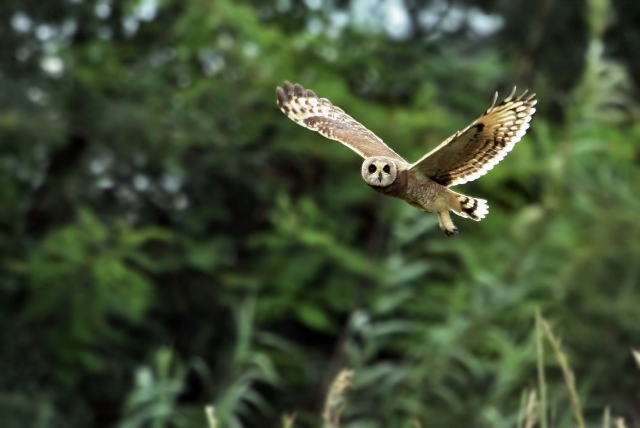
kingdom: Animalia
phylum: Chordata
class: Aves
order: Strigiformes
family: Strigidae
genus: Asio
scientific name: Asio capensis
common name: Marsh owl
